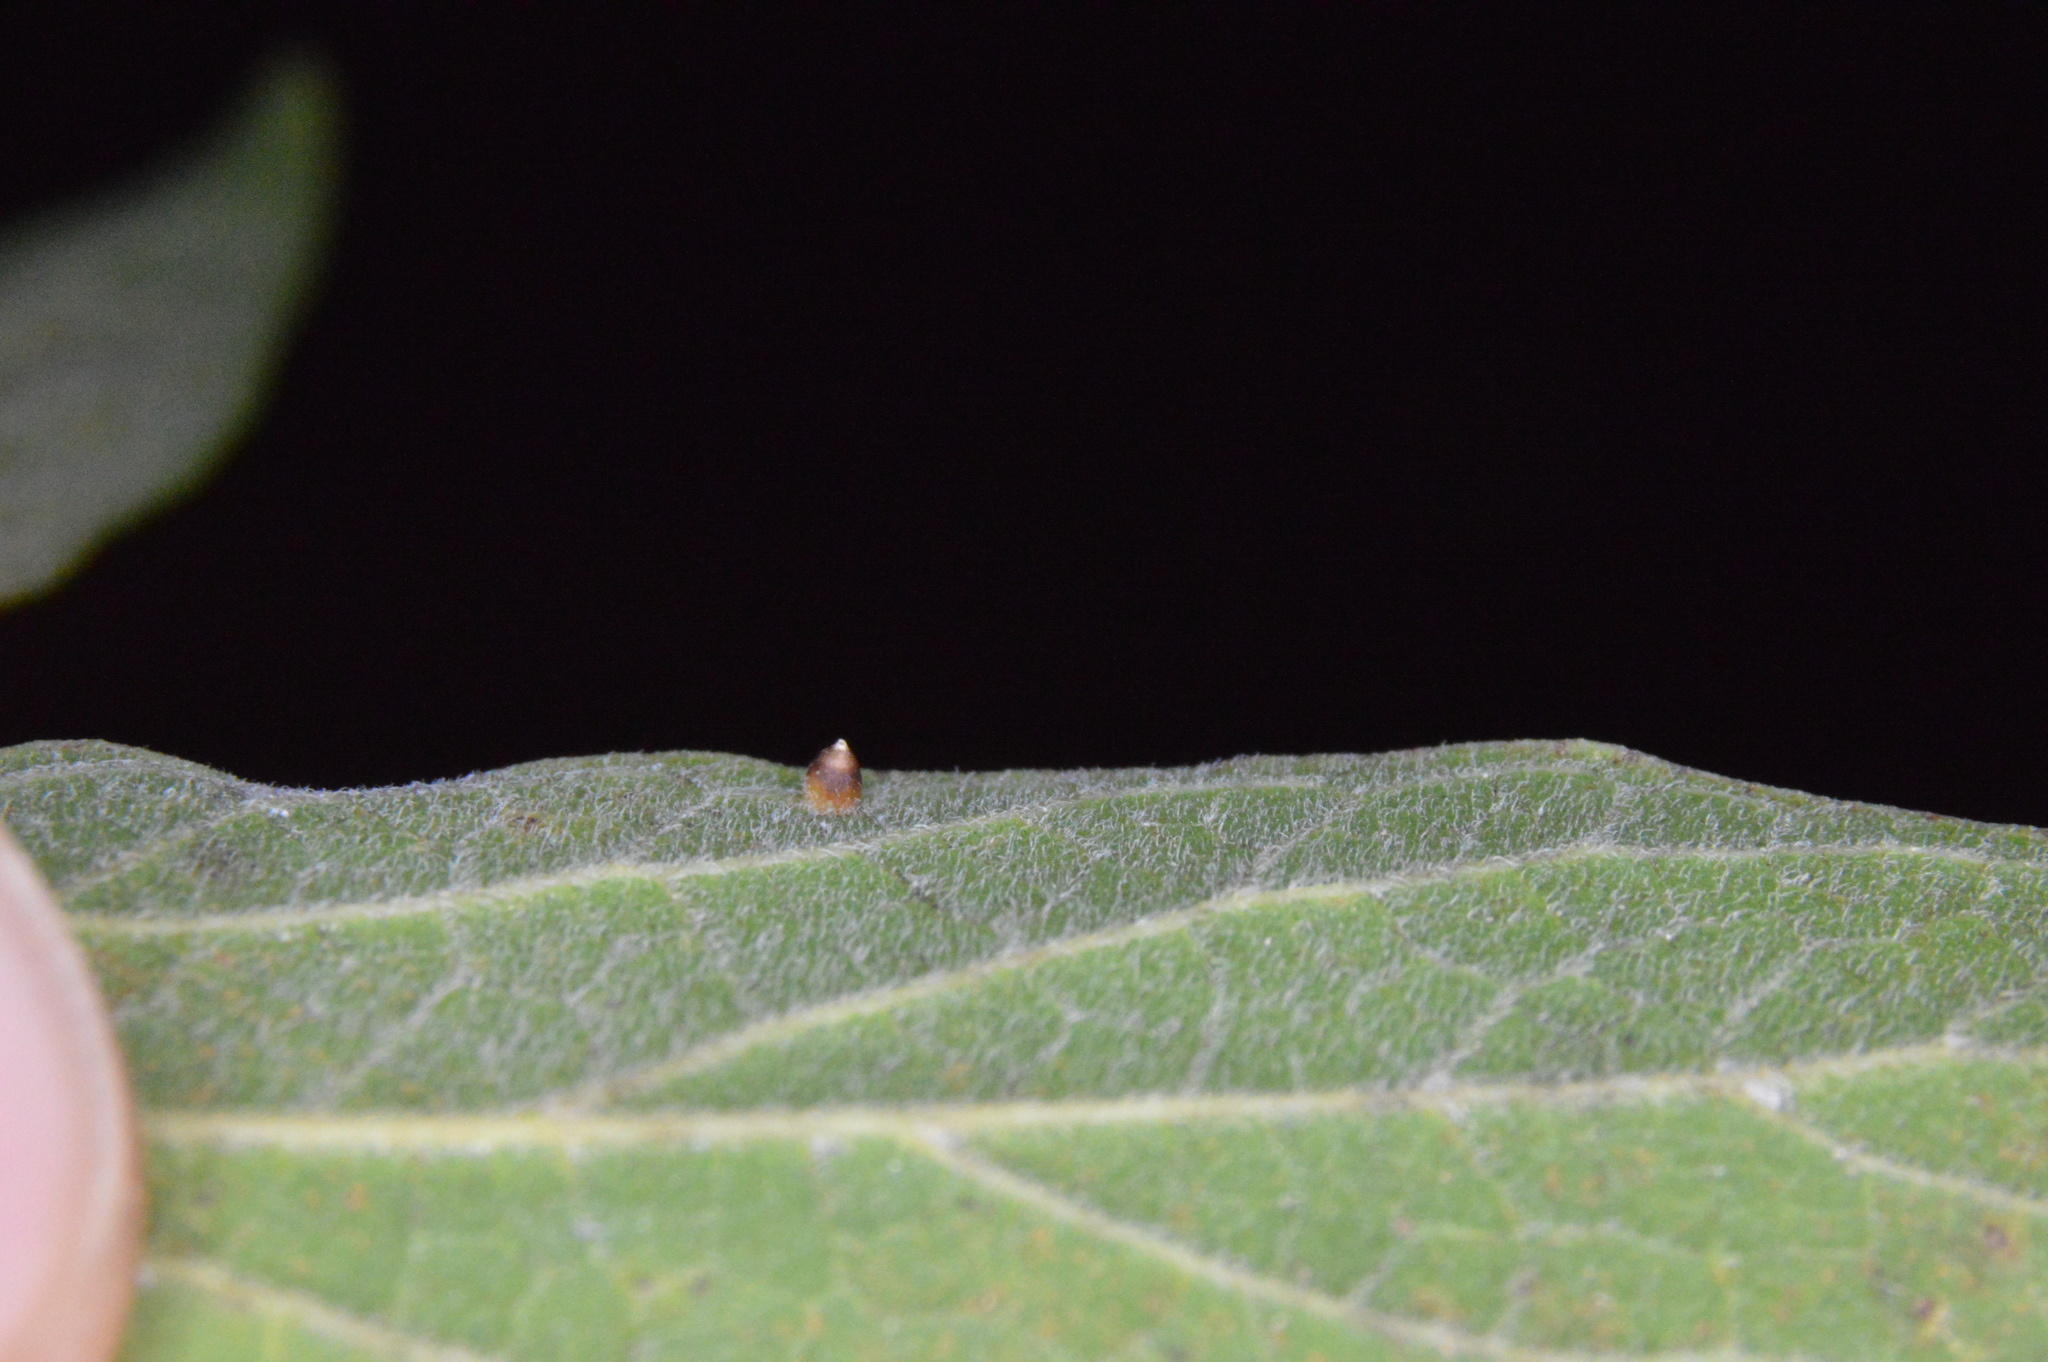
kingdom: Animalia
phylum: Arthropoda
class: Insecta
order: Diptera
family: Cecidomyiidae
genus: Celticecis
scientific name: Celticecis cupiformis
